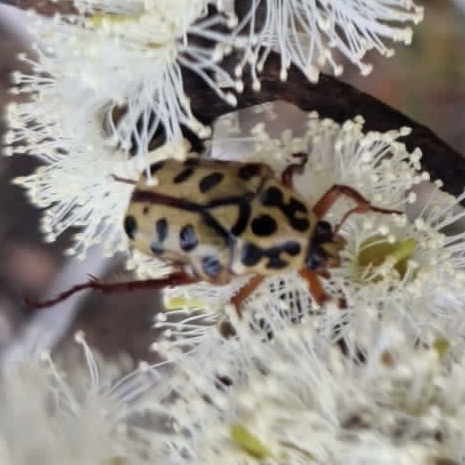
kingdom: Animalia
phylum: Arthropoda
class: Insecta
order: Coleoptera
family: Scarabaeidae
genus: Neorrhina
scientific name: Neorrhina punctatum
